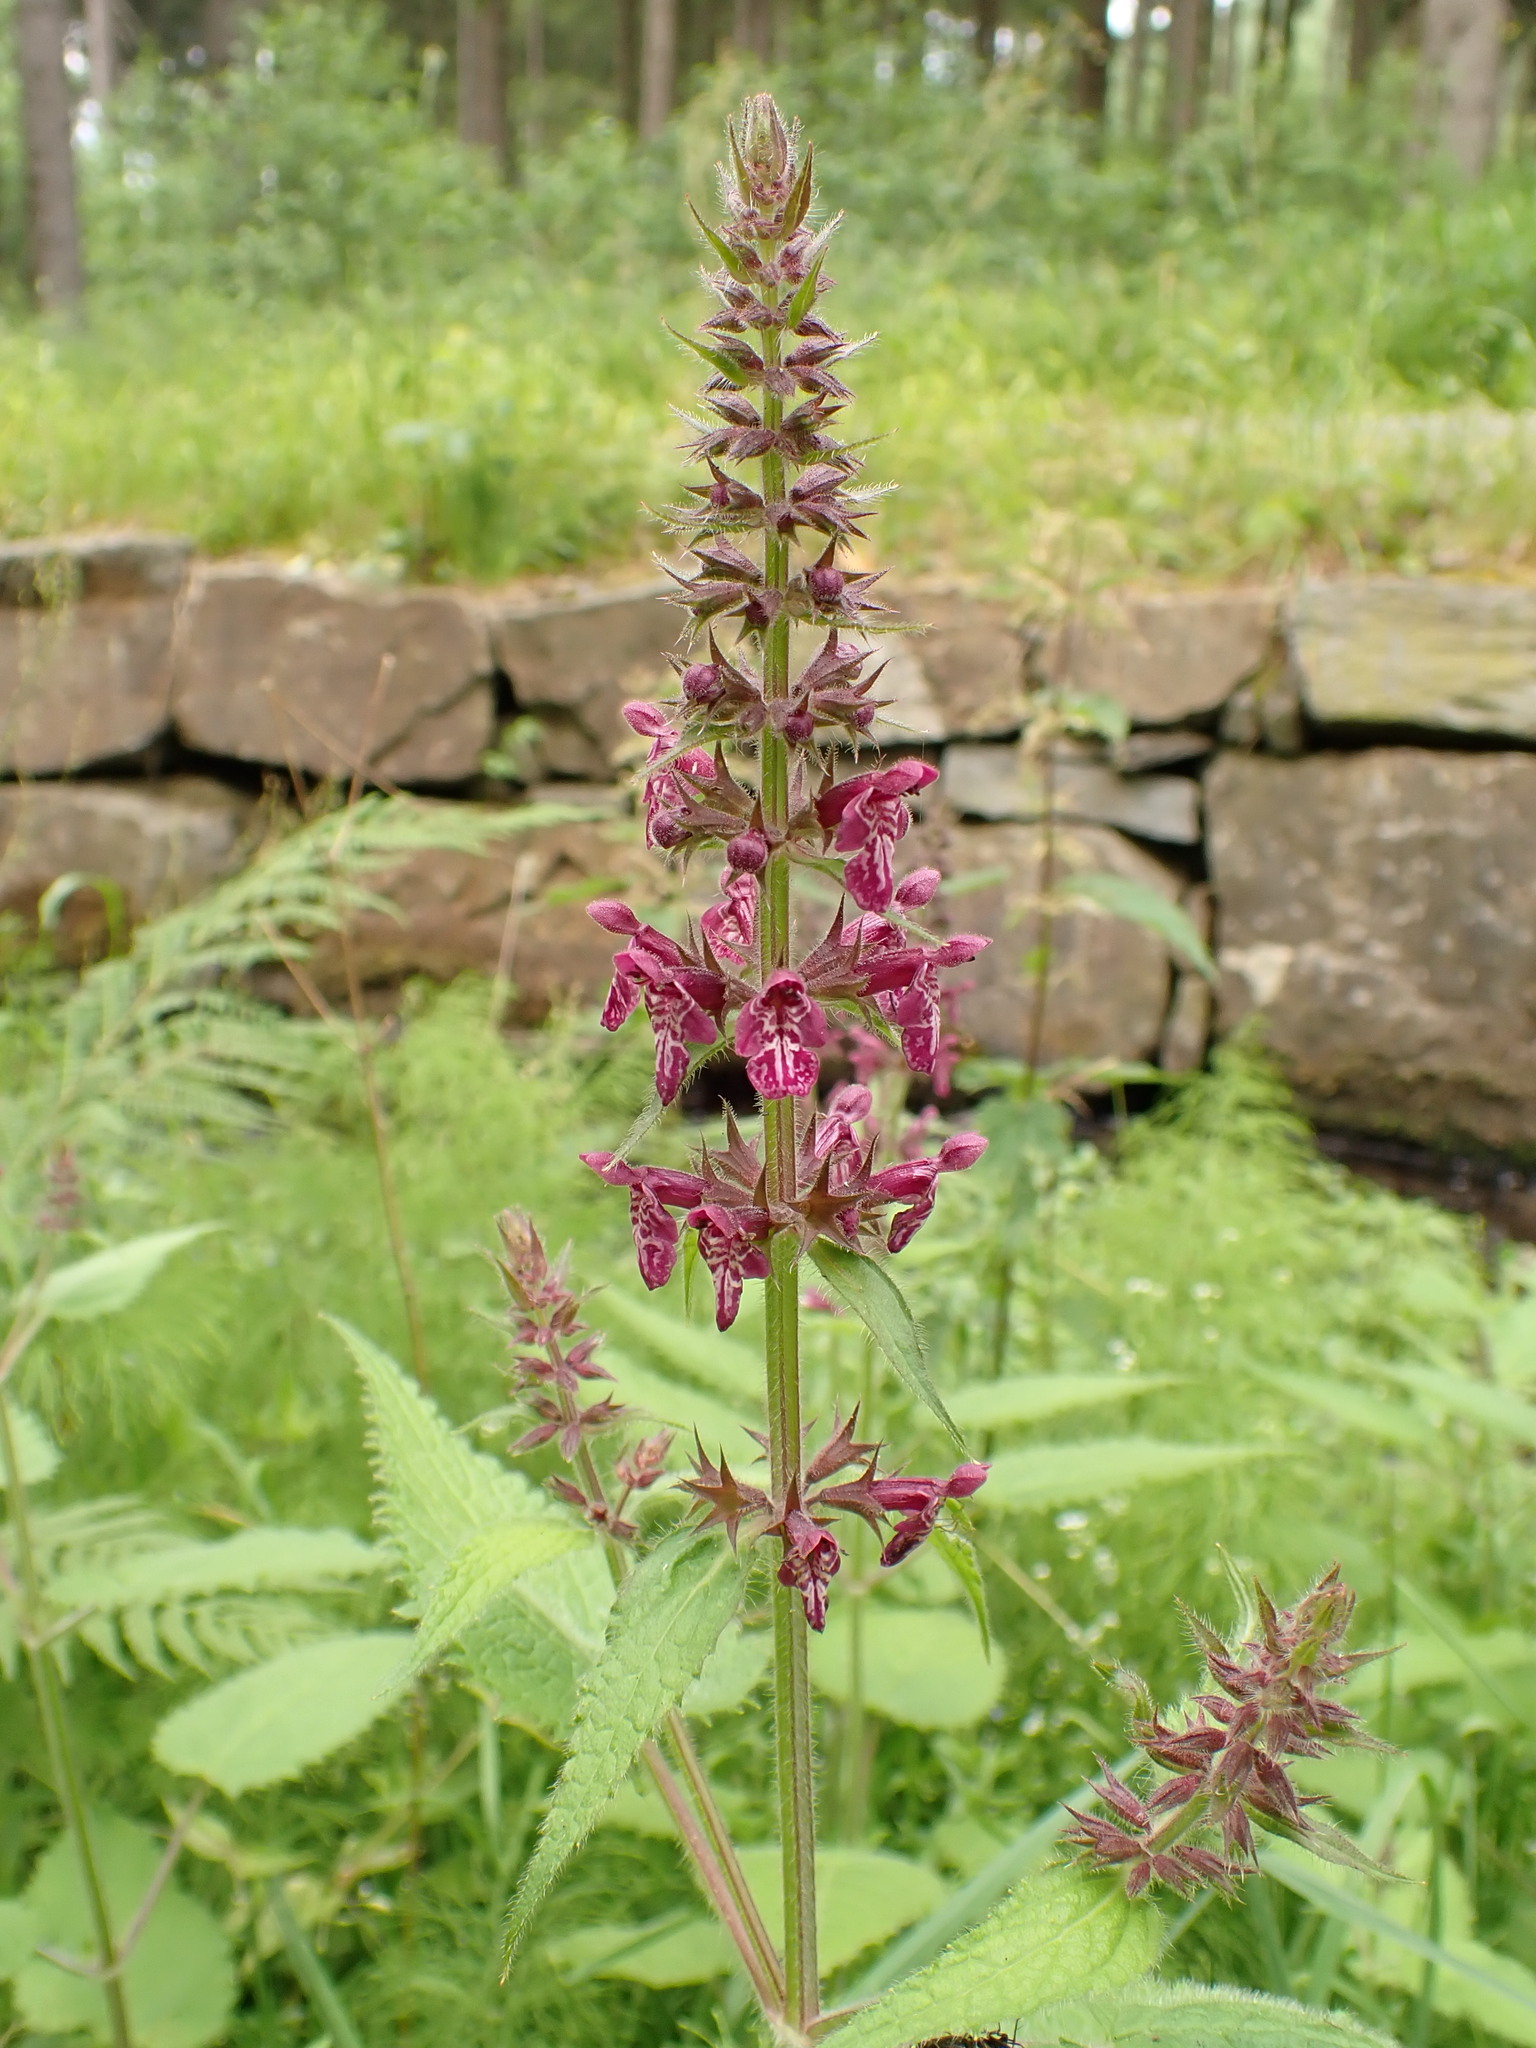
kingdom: Plantae
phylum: Tracheophyta
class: Magnoliopsida
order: Lamiales
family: Lamiaceae
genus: Stachys
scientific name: Stachys sylvatica
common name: Hedge woundwort
